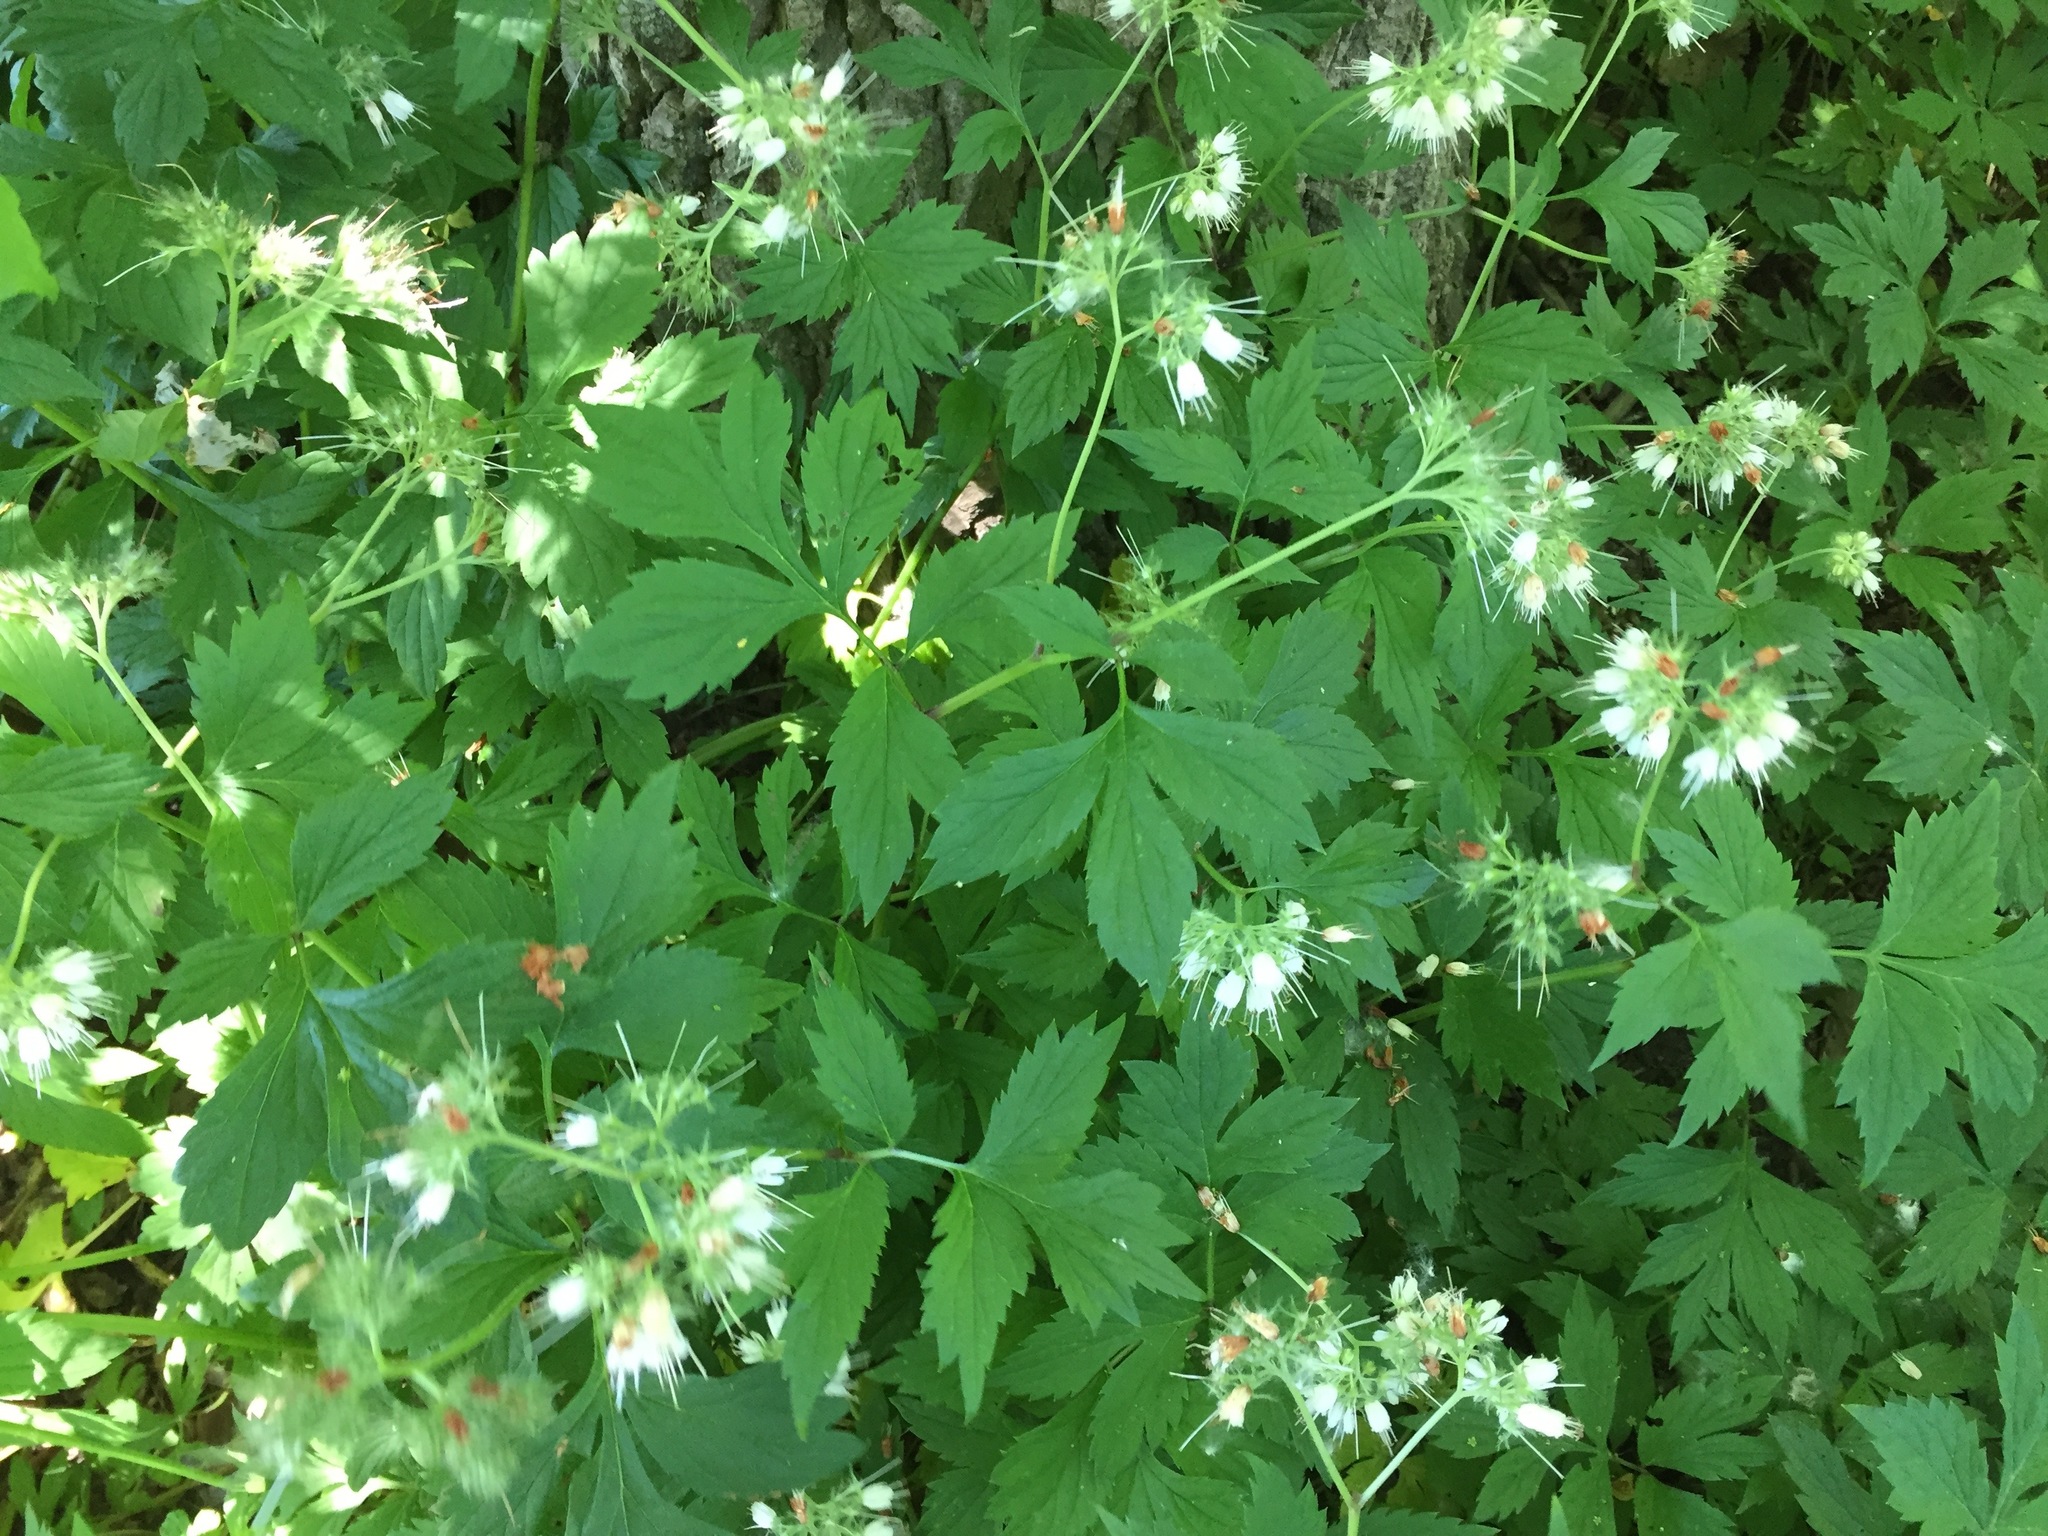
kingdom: Plantae
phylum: Tracheophyta
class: Magnoliopsida
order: Boraginales
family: Hydrophyllaceae
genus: Hydrophyllum
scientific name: Hydrophyllum virginianum
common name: Virginia waterleaf
